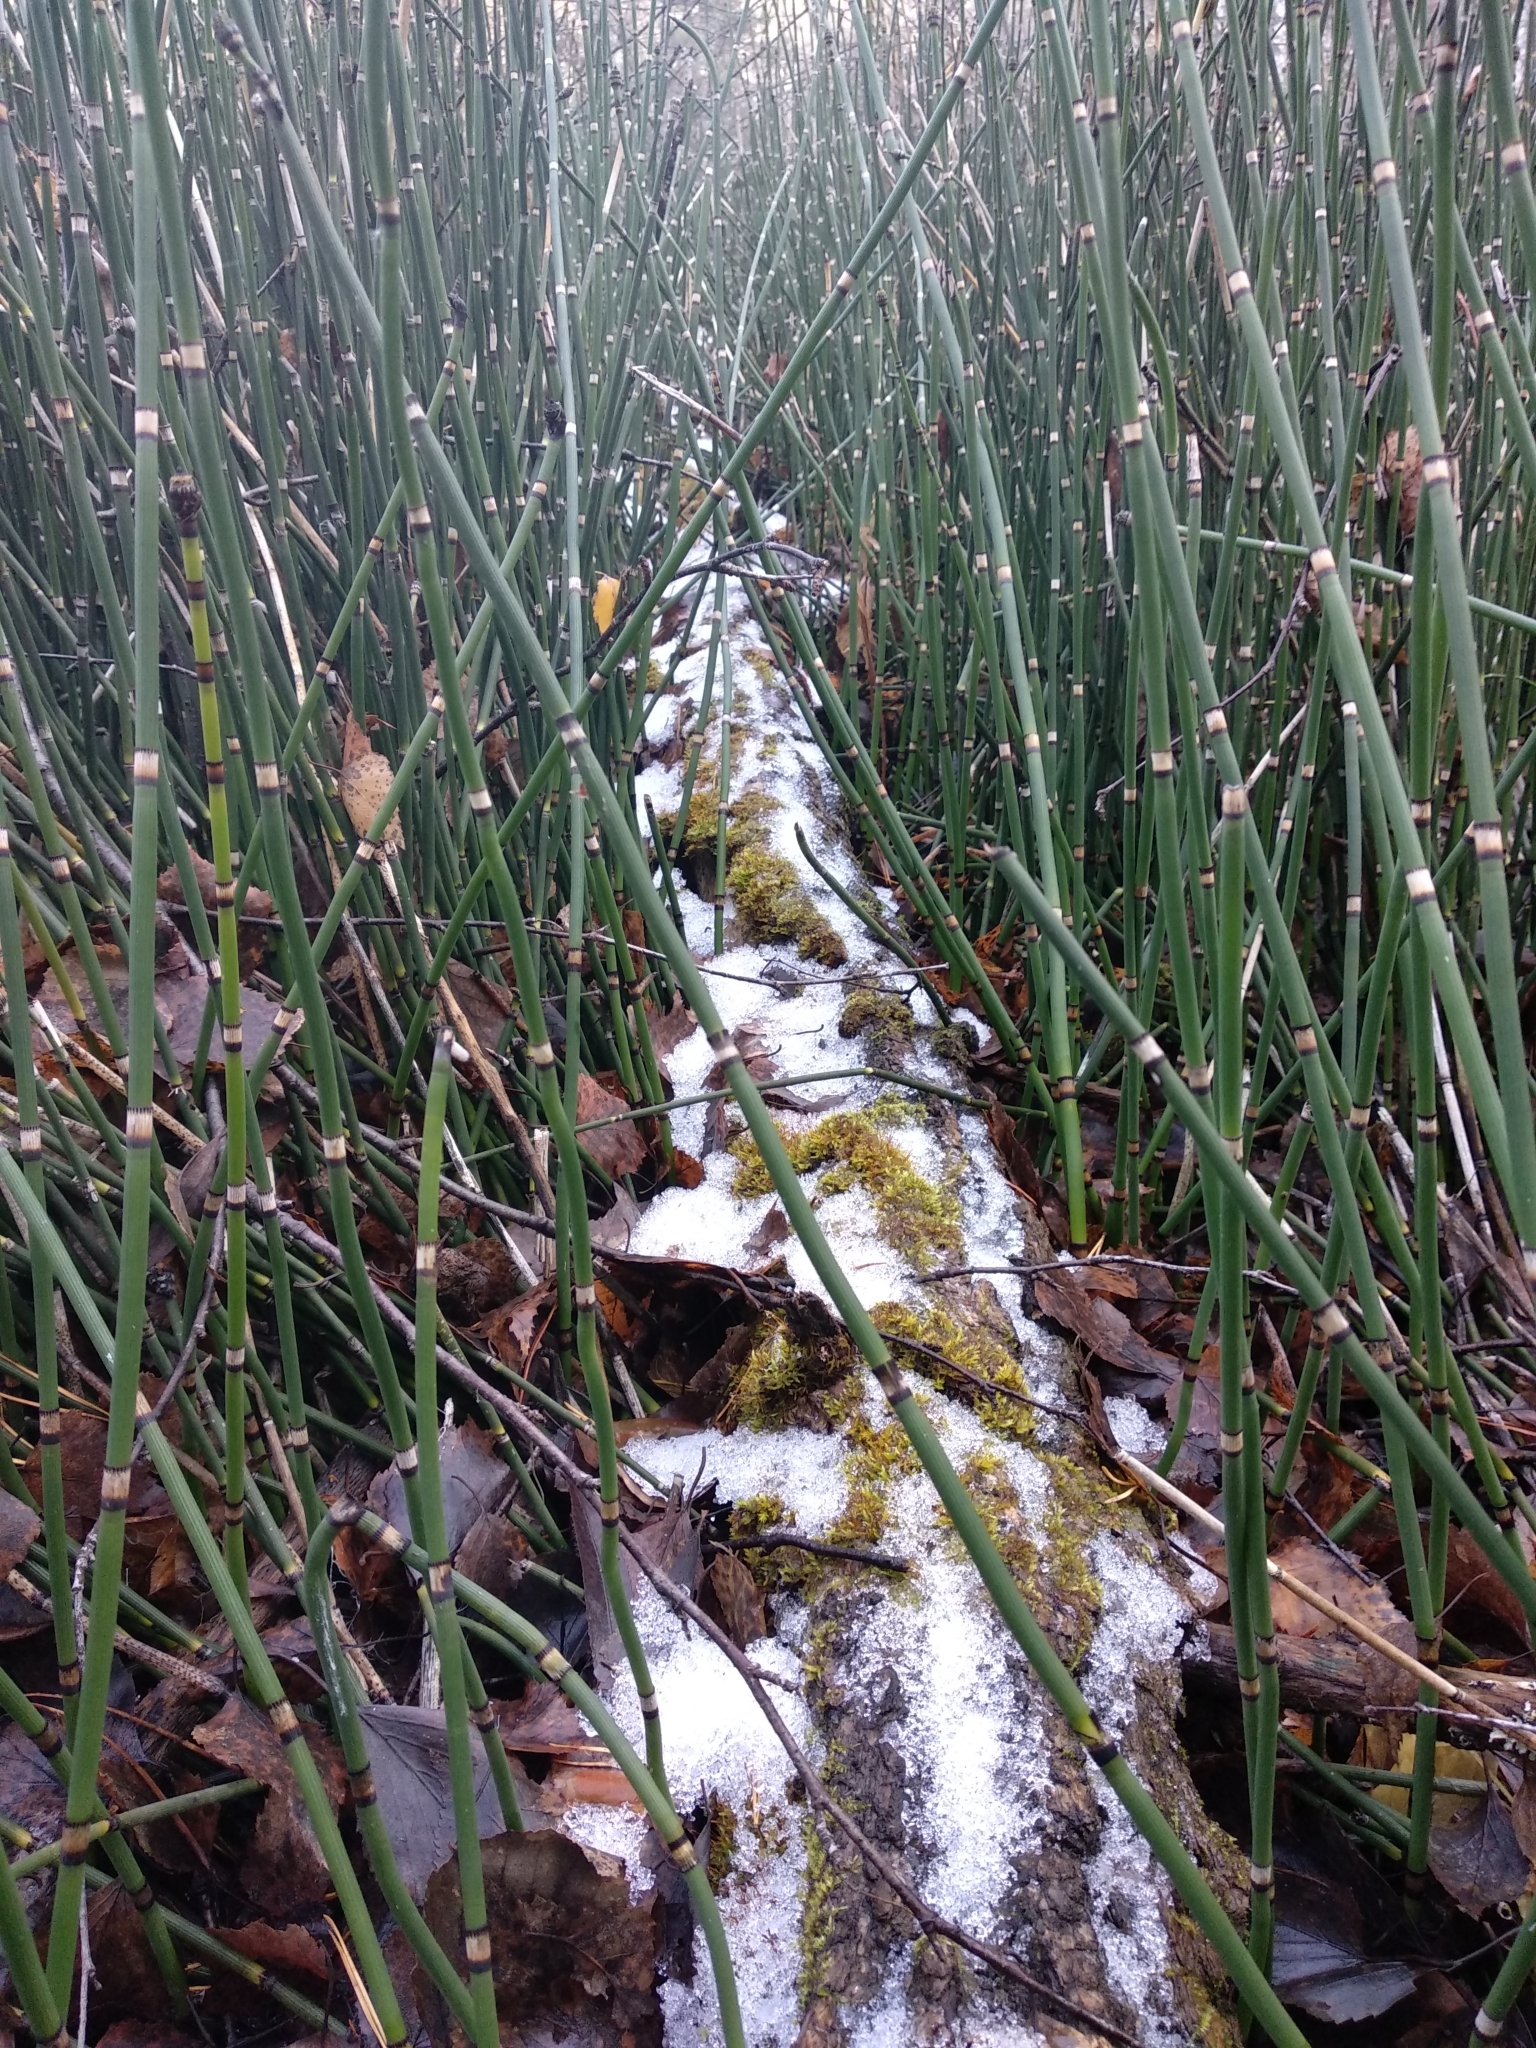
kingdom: Plantae
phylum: Tracheophyta
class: Polypodiopsida
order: Equisetales
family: Equisetaceae
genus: Equisetum
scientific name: Equisetum hyemale
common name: Rough horsetail
